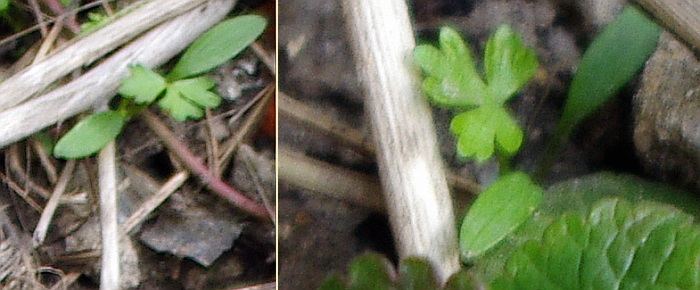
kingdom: Plantae
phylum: Tracheophyta
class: Magnoliopsida
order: Ranunculales
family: Ranunculaceae
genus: Ranunculus
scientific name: Ranunculus
